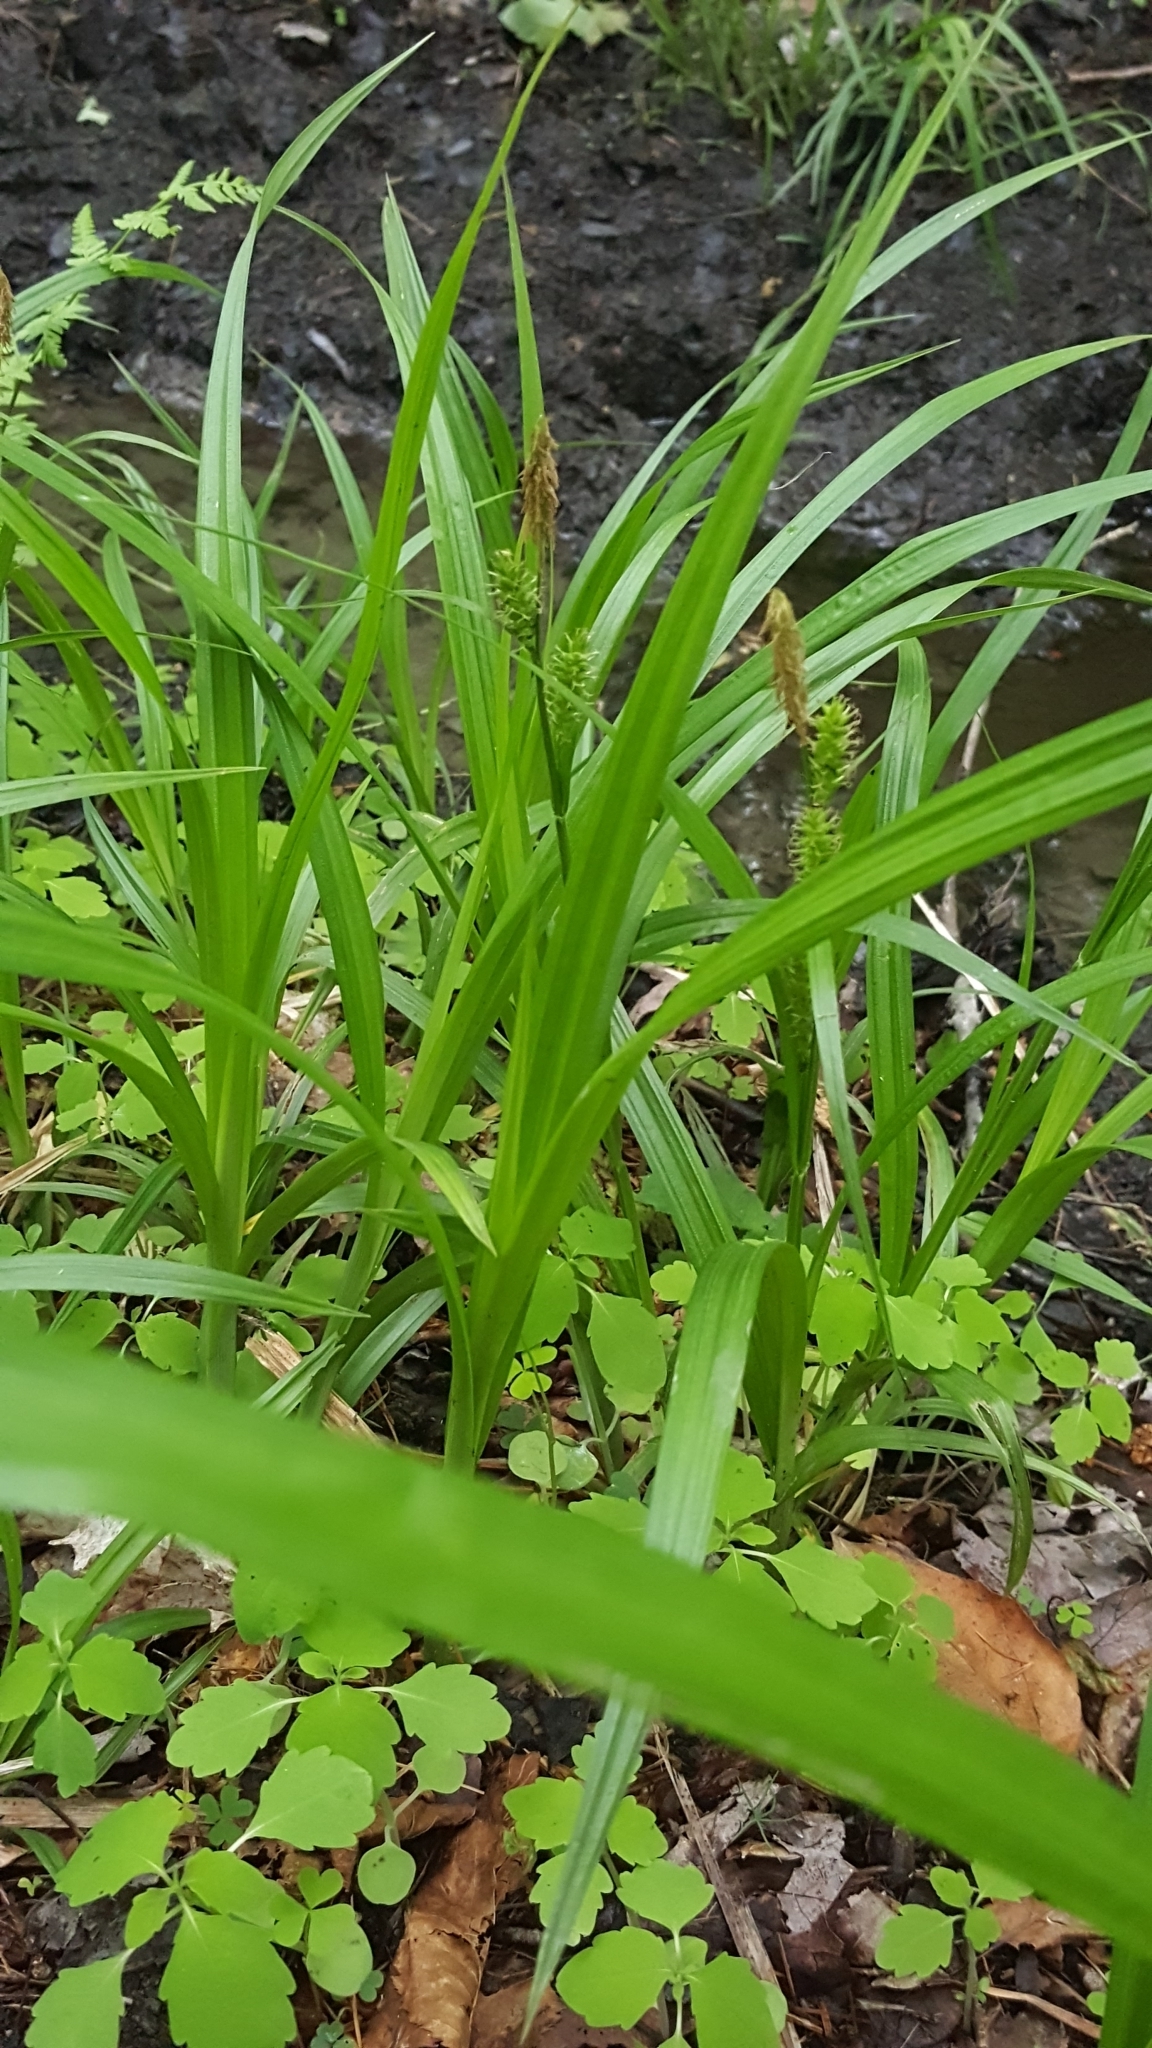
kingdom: Plantae
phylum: Tracheophyta
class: Liliopsida
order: Poales
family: Cyperaceae
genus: Carex
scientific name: Carex scabrata
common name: Eastern rough sedge
